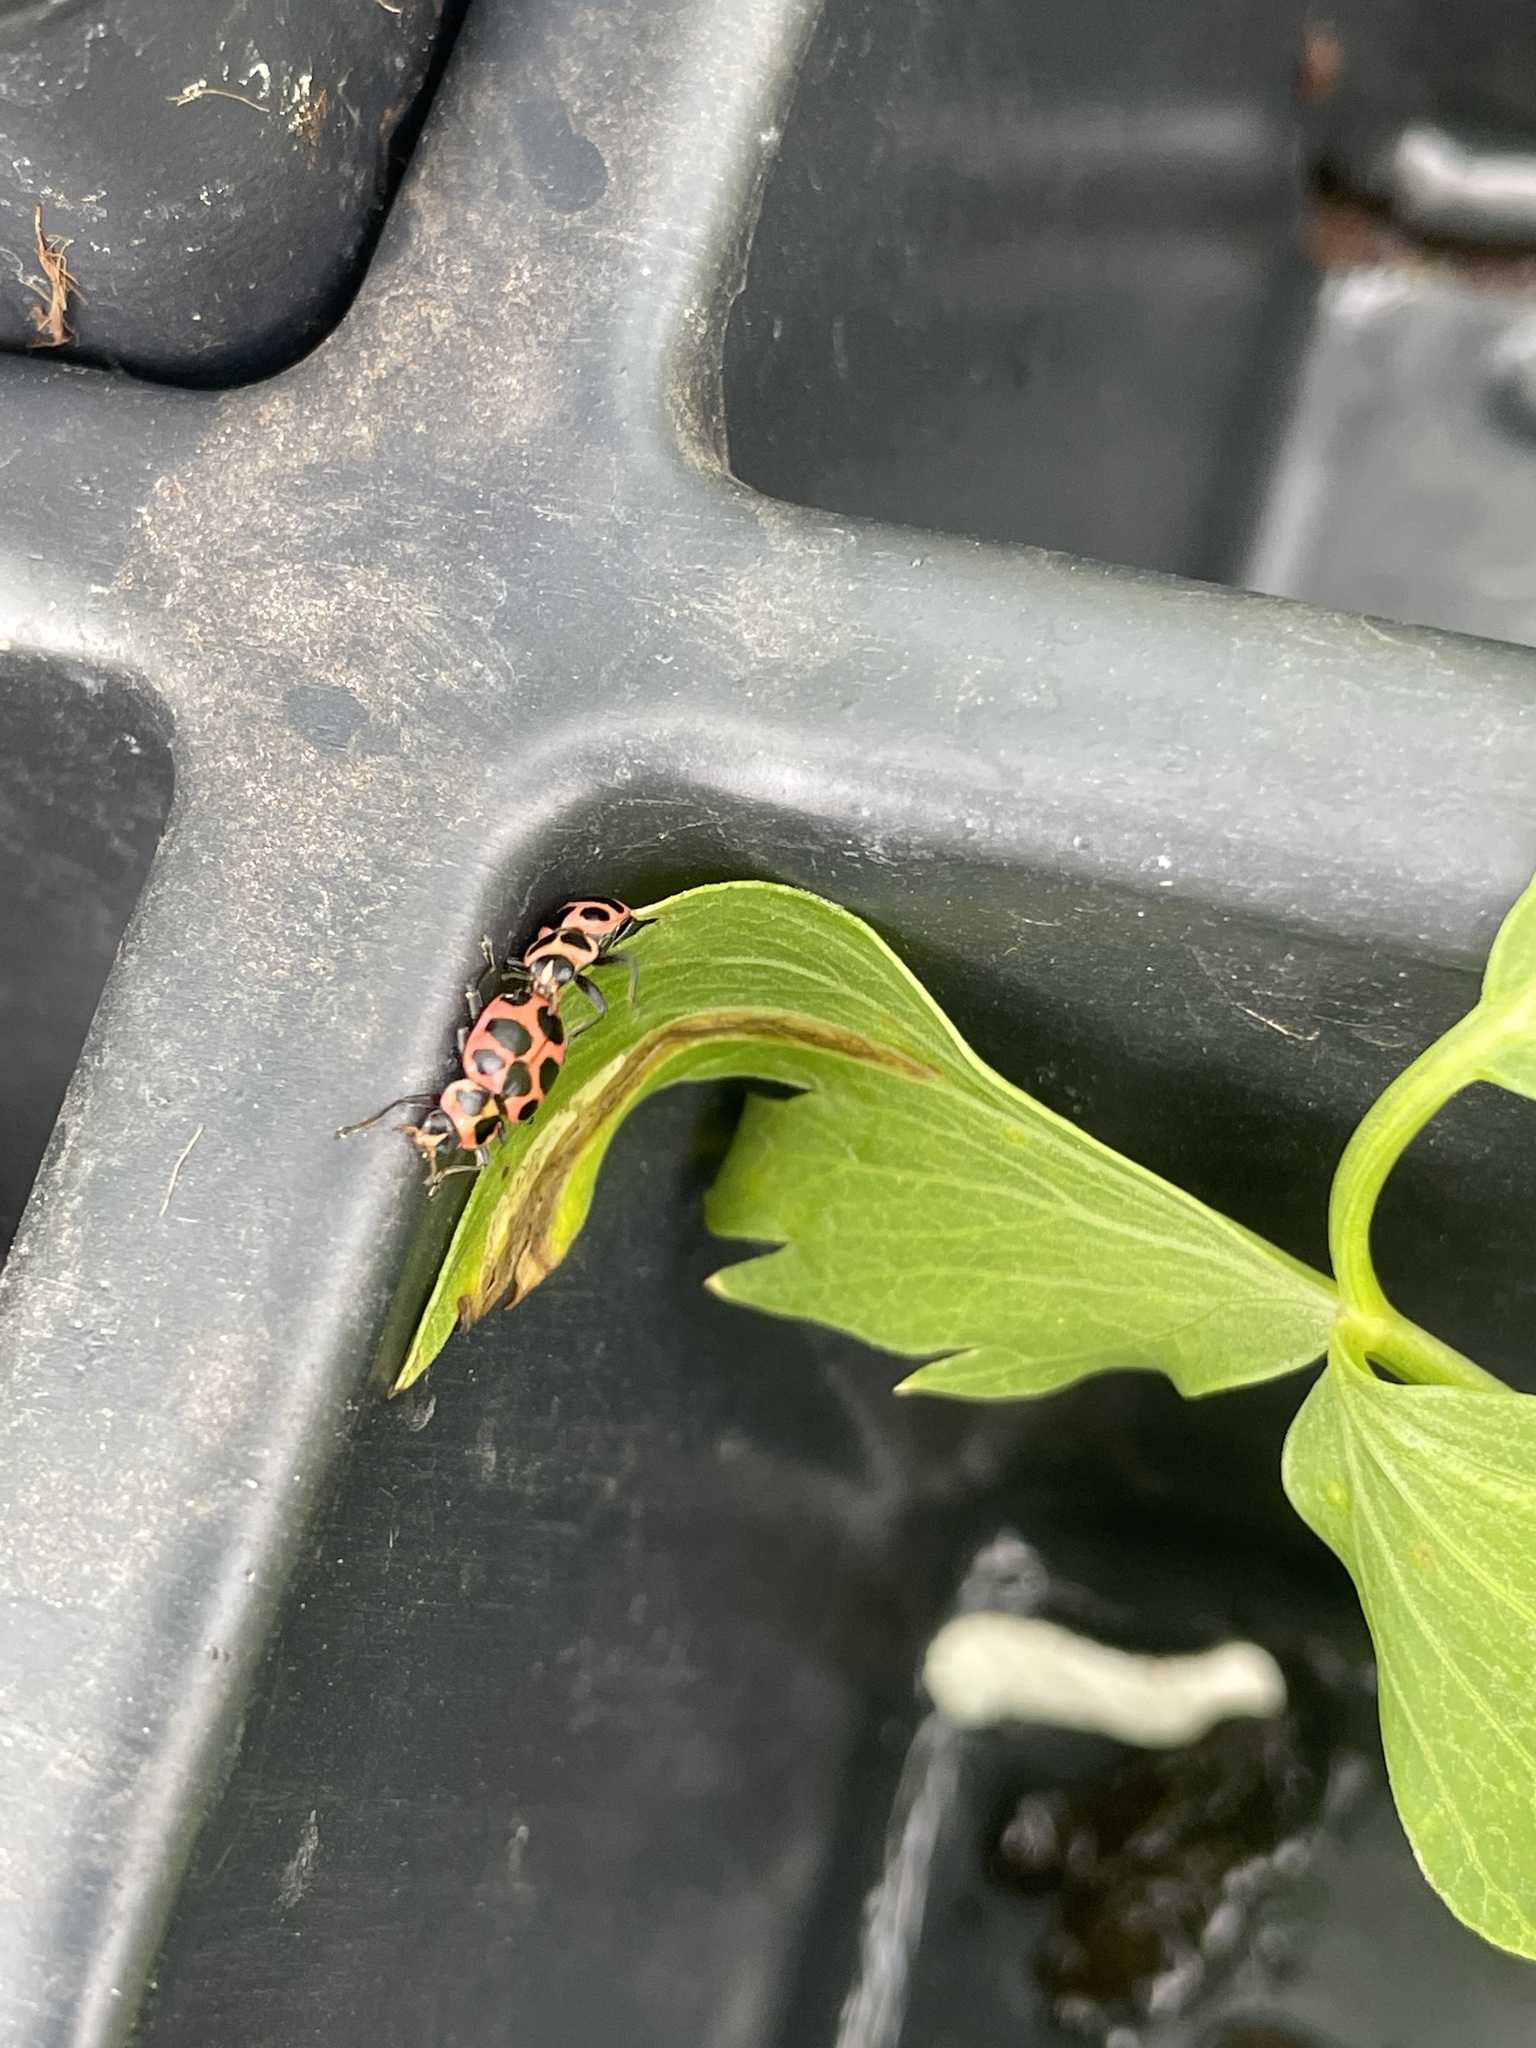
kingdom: Animalia
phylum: Arthropoda
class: Insecta
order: Coleoptera
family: Coccinellidae
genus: Coleomegilla
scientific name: Coleomegilla maculata
